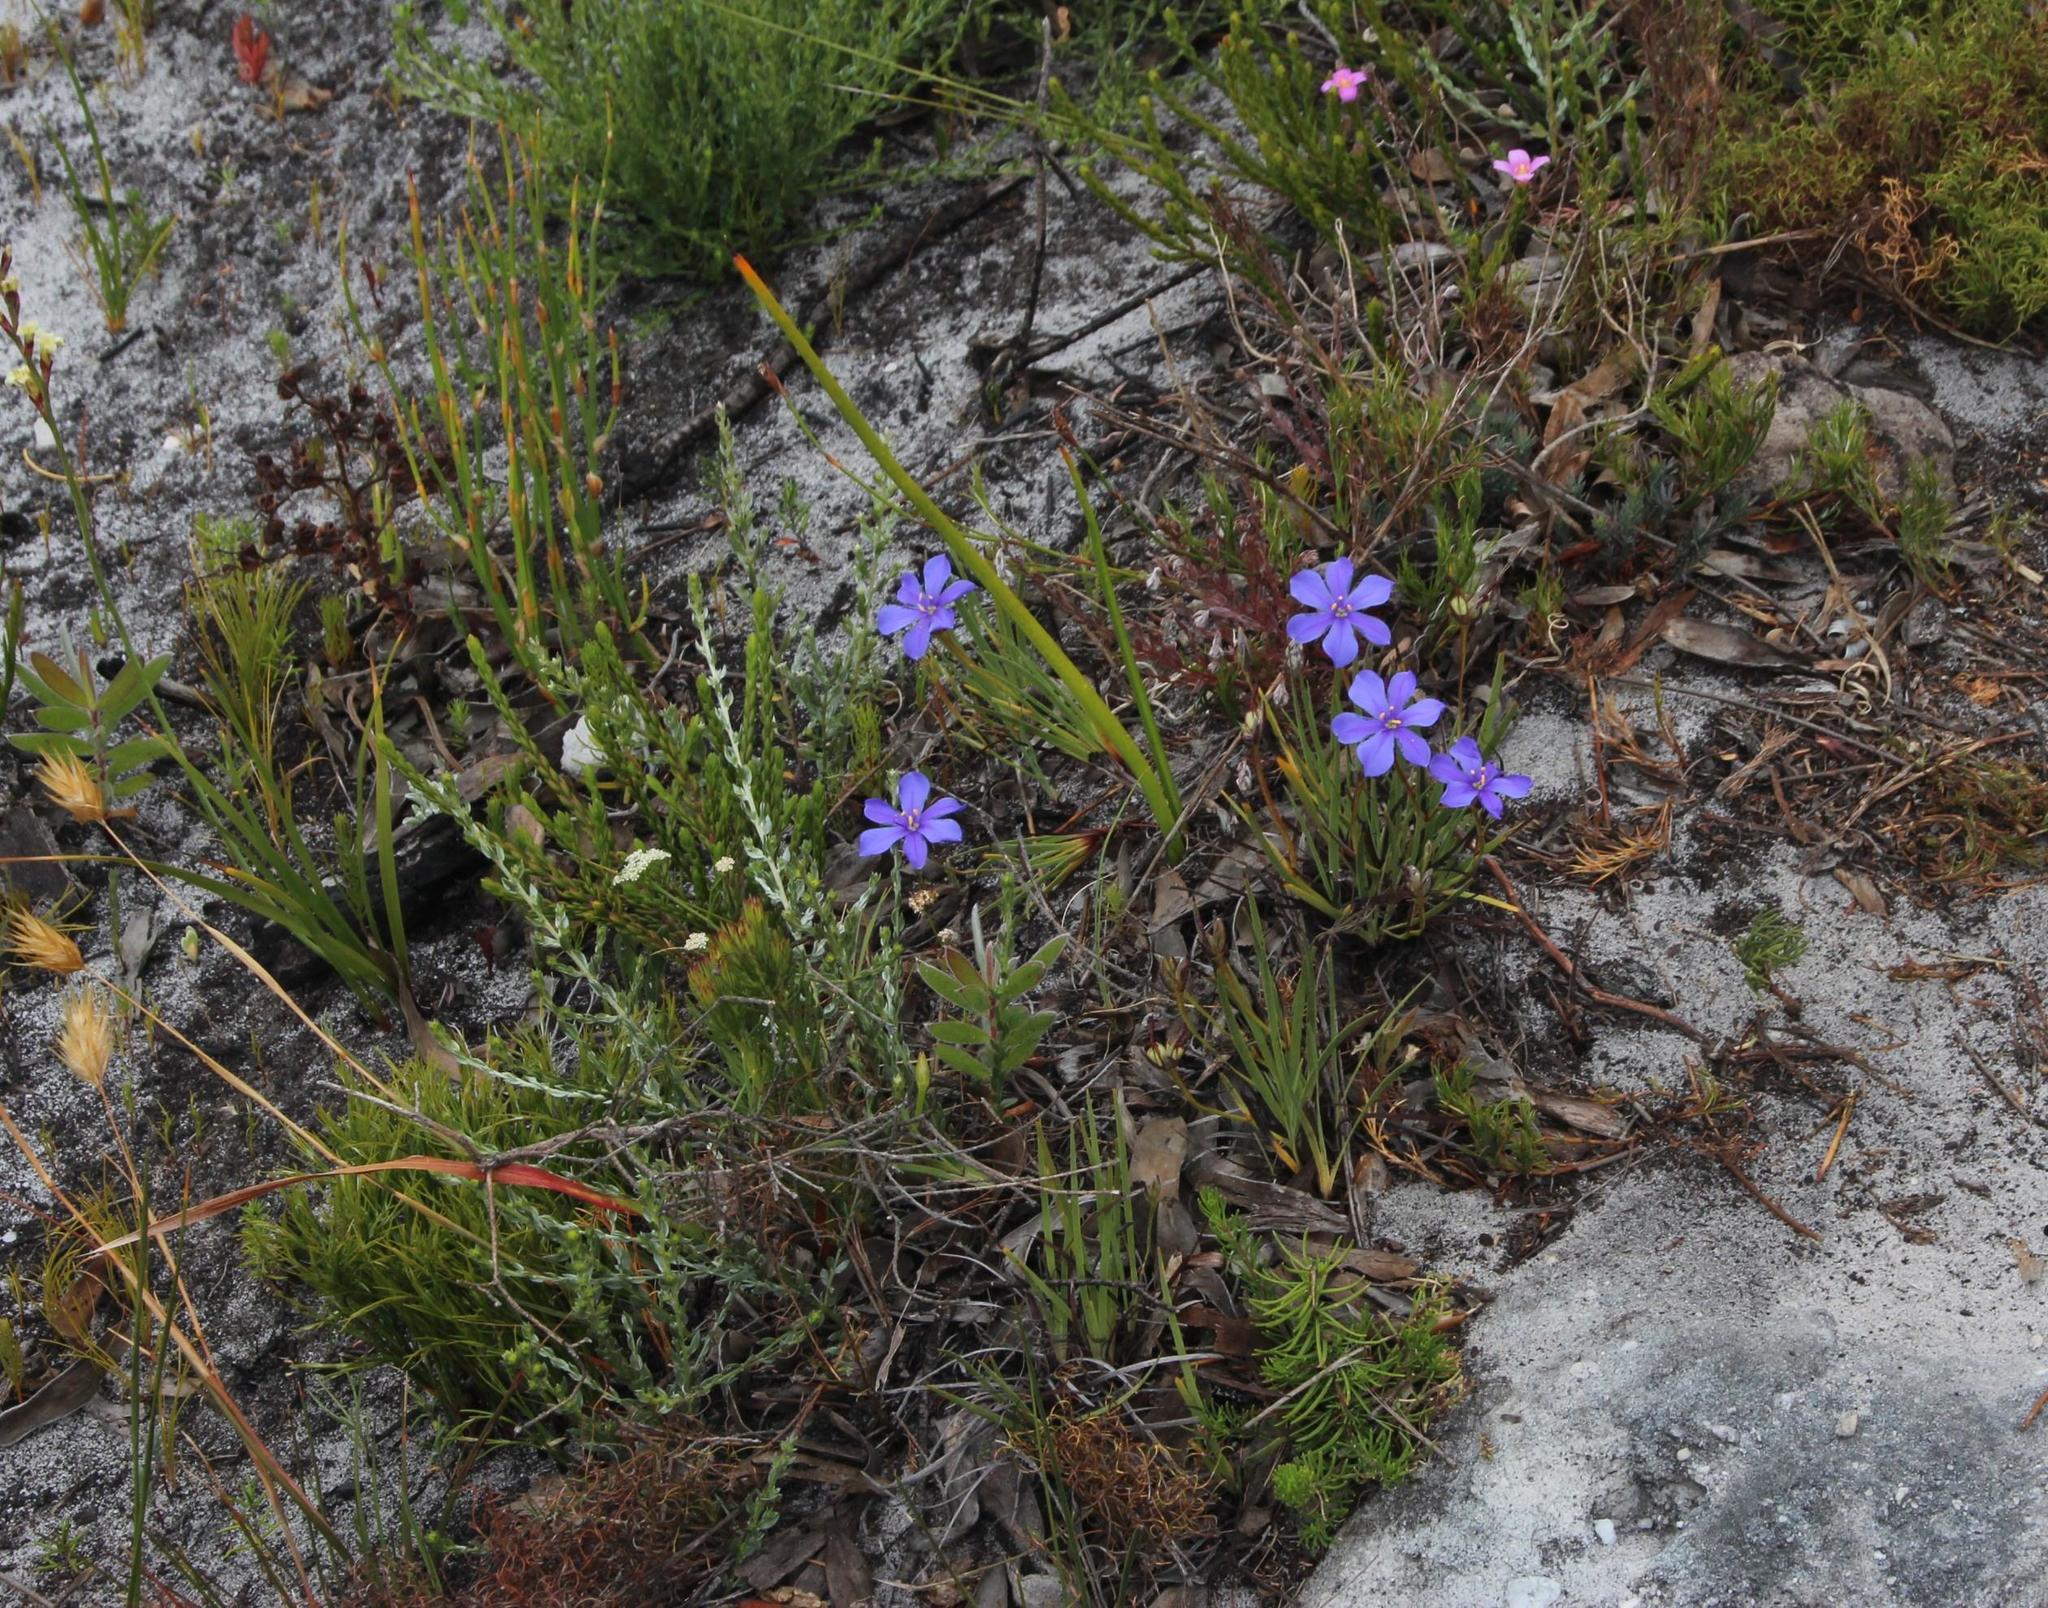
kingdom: Plantae
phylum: Tracheophyta
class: Liliopsida
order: Asparagales
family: Iridaceae
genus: Aristea
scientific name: Aristea africana
